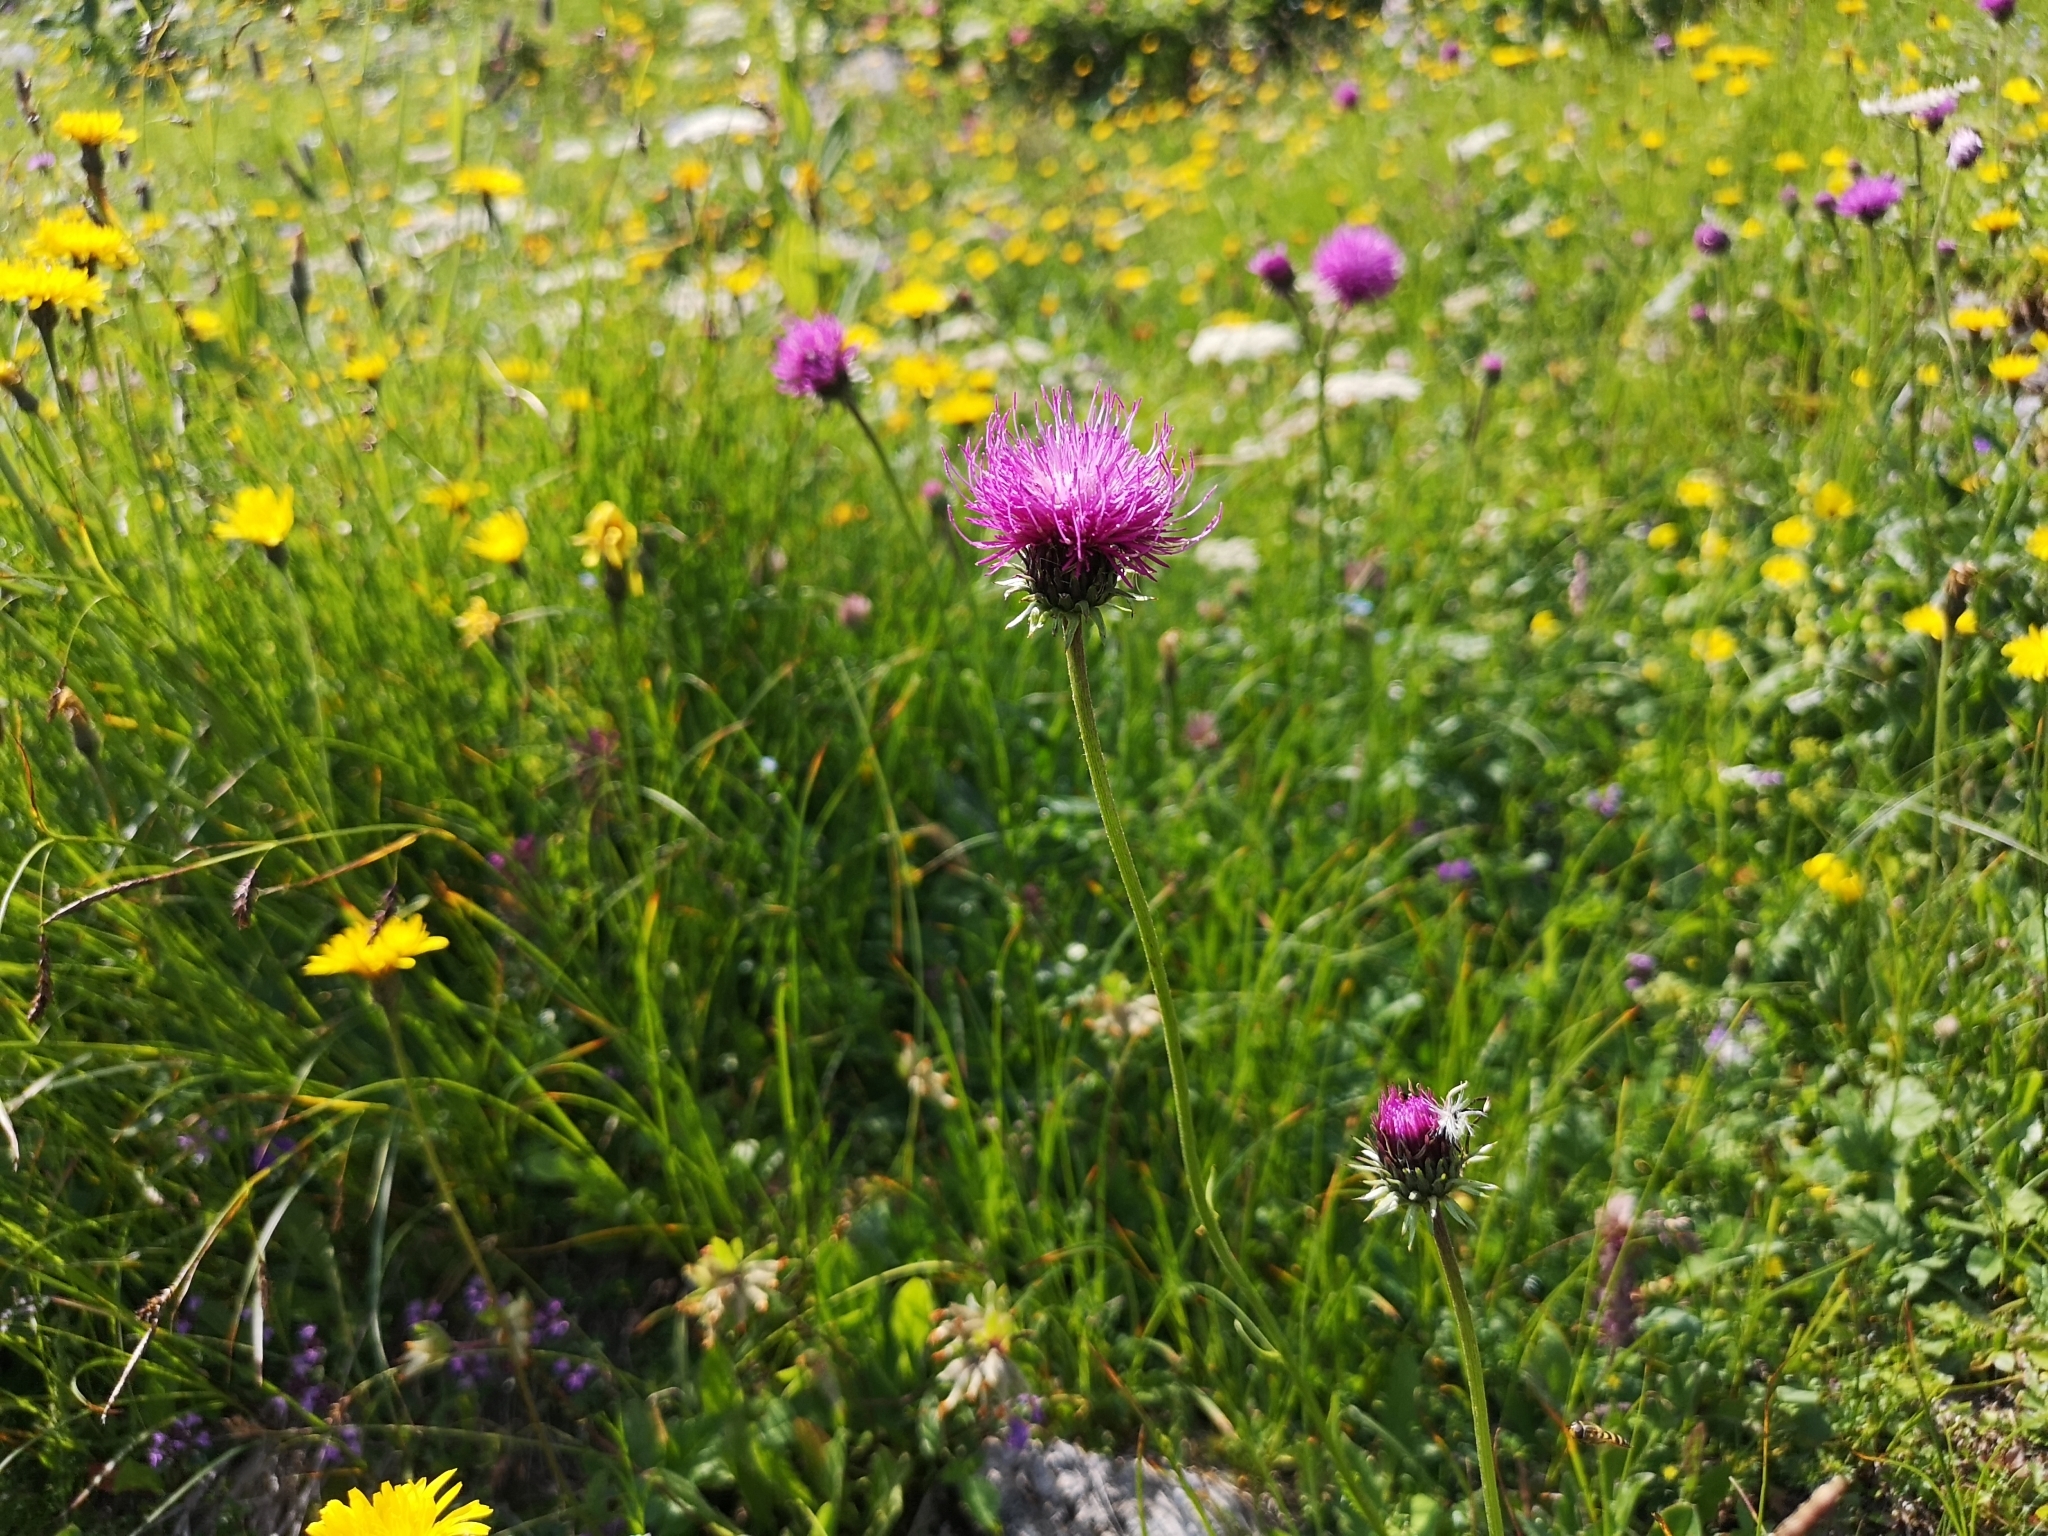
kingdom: Plantae
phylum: Tracheophyta
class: Magnoliopsida
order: Asterales
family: Asteraceae
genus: Carduus
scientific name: Carduus defloratus
